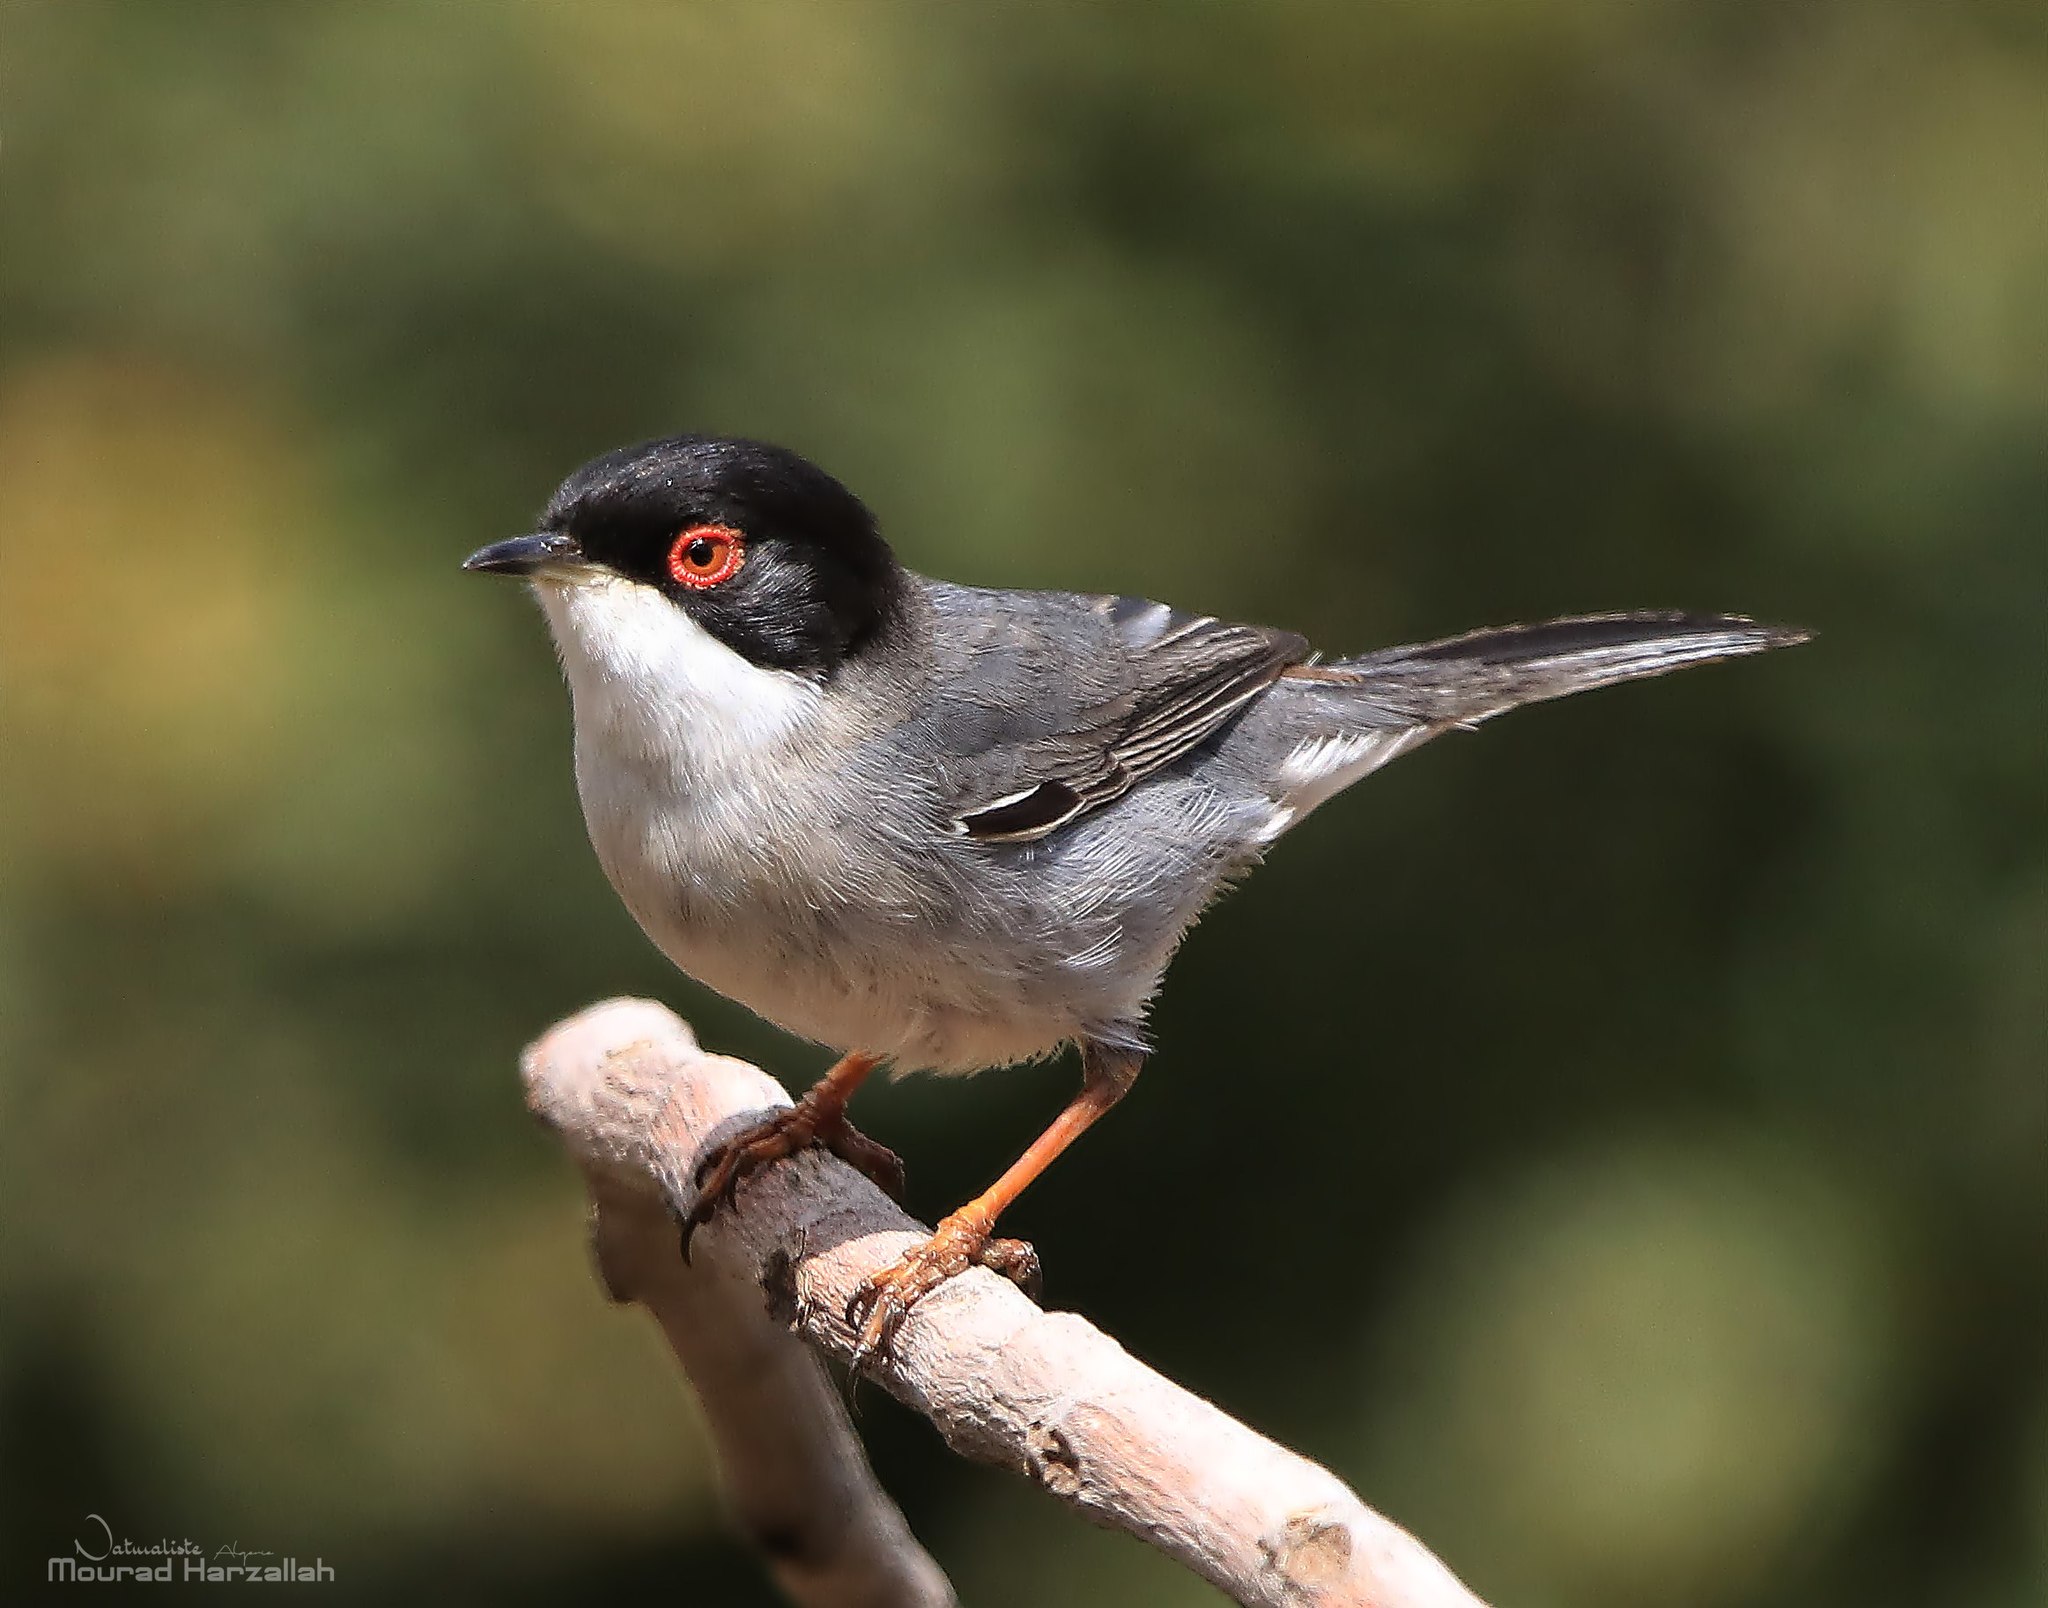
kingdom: Animalia
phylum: Chordata
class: Aves
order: Passeriformes
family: Sylviidae
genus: Curruca
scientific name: Curruca melanocephala
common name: Sardinian warbler
